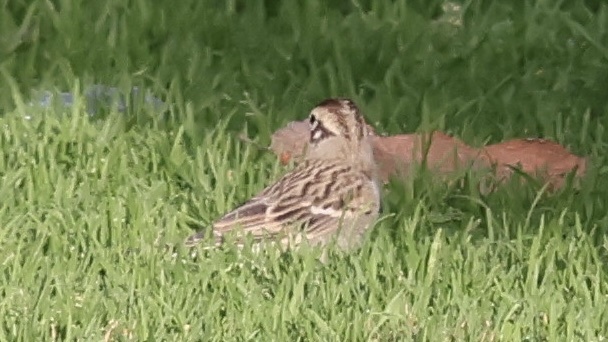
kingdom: Animalia
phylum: Chordata
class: Aves
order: Passeriformes
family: Passerellidae
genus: Chondestes
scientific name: Chondestes grammacus
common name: Lark sparrow
